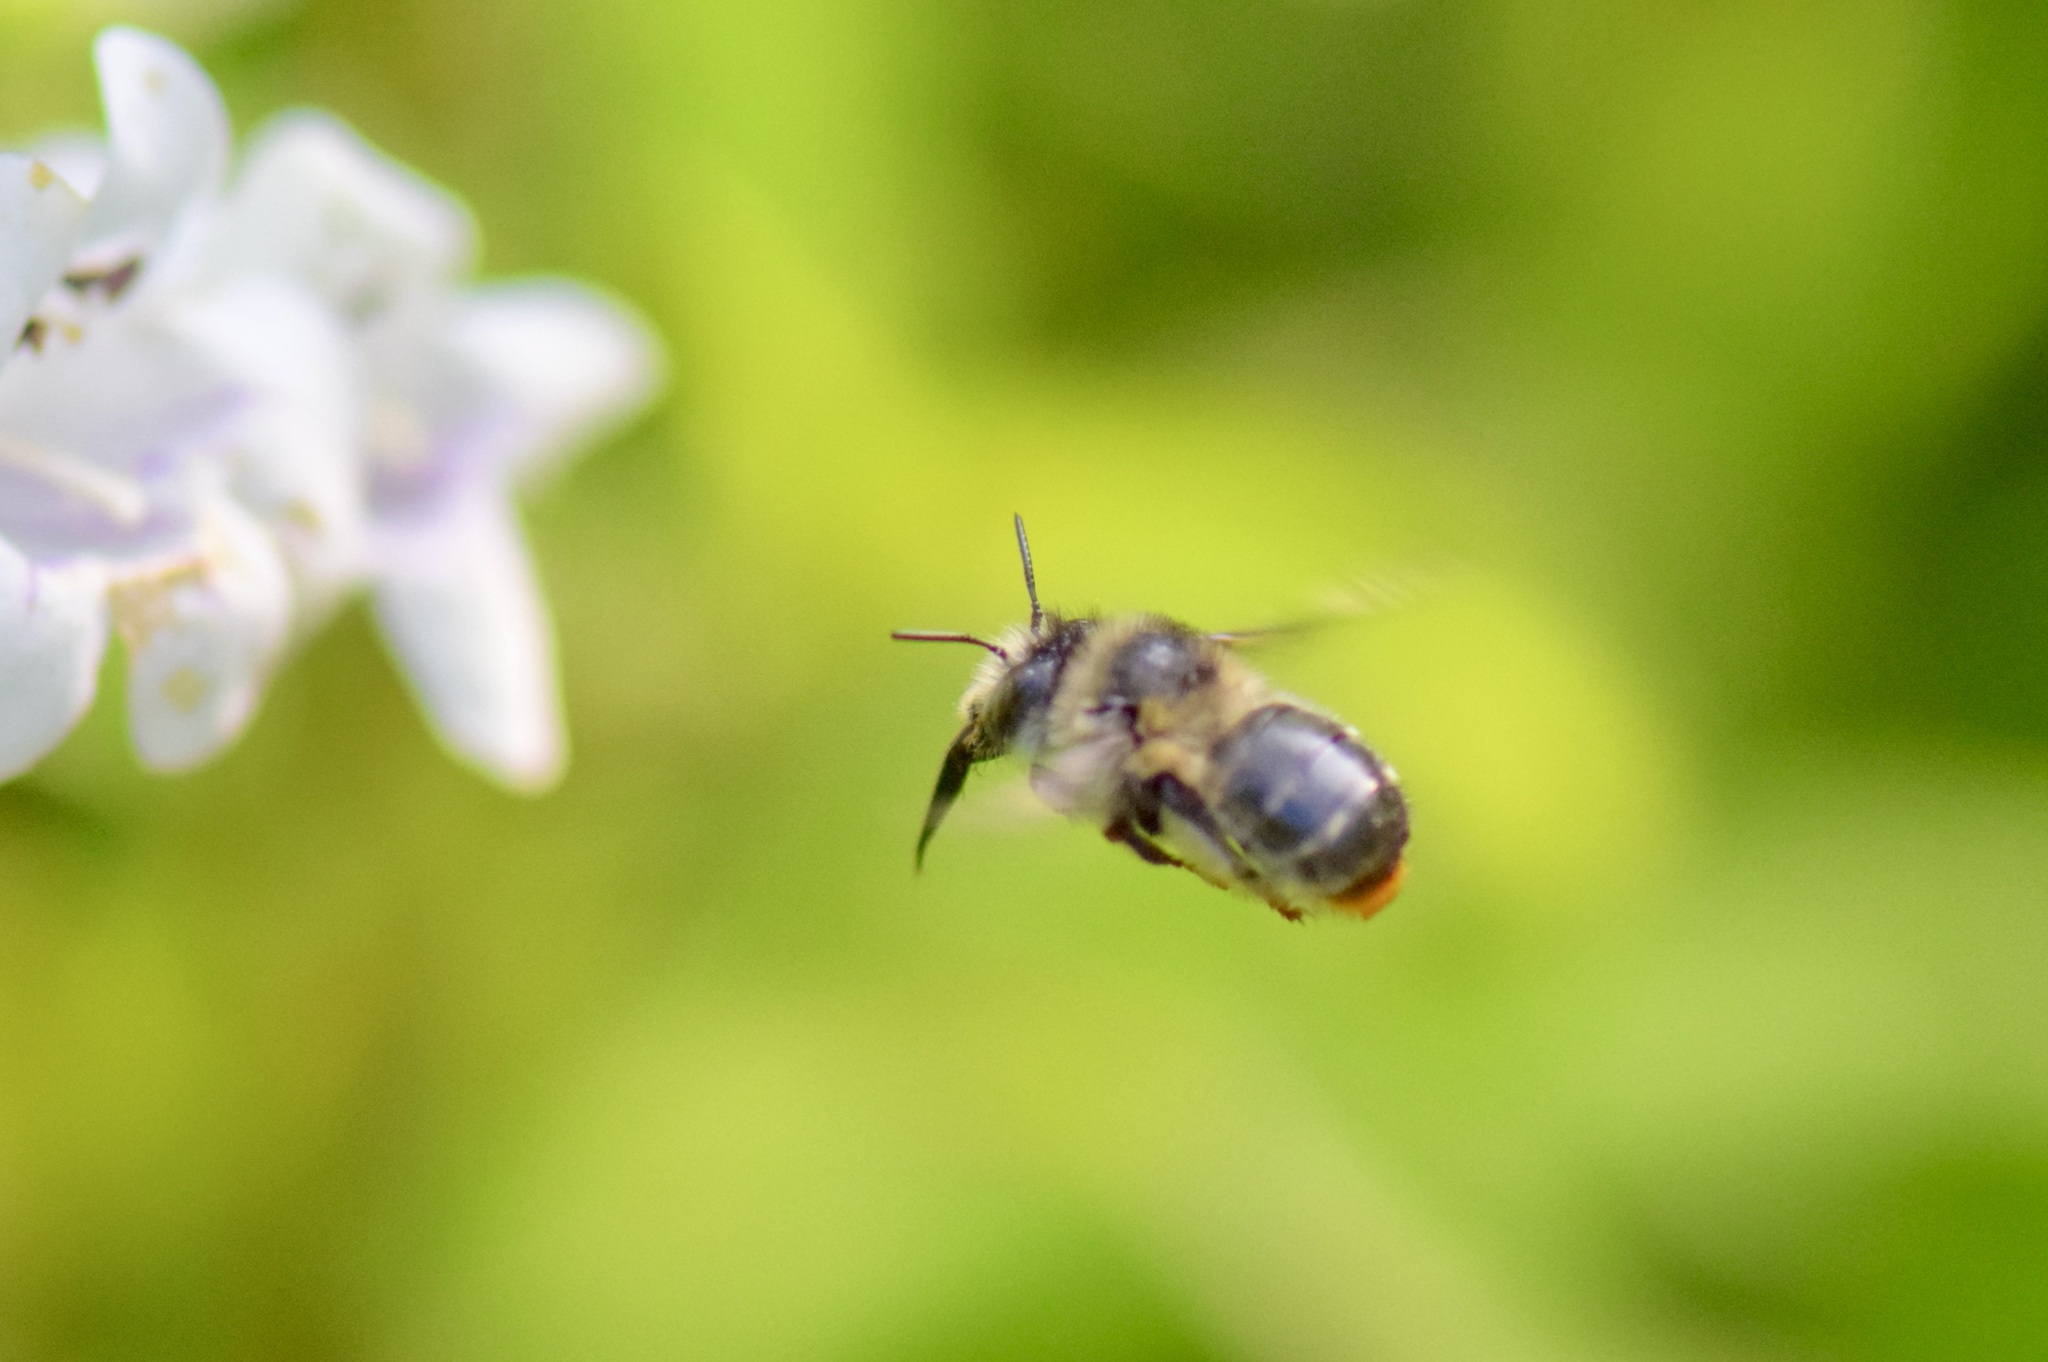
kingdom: Animalia
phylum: Arthropoda
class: Insecta
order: Hymenoptera
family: Apidae
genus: Anthophora
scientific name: Anthophora terminalis
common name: Orange-tipped wood-digger bee
